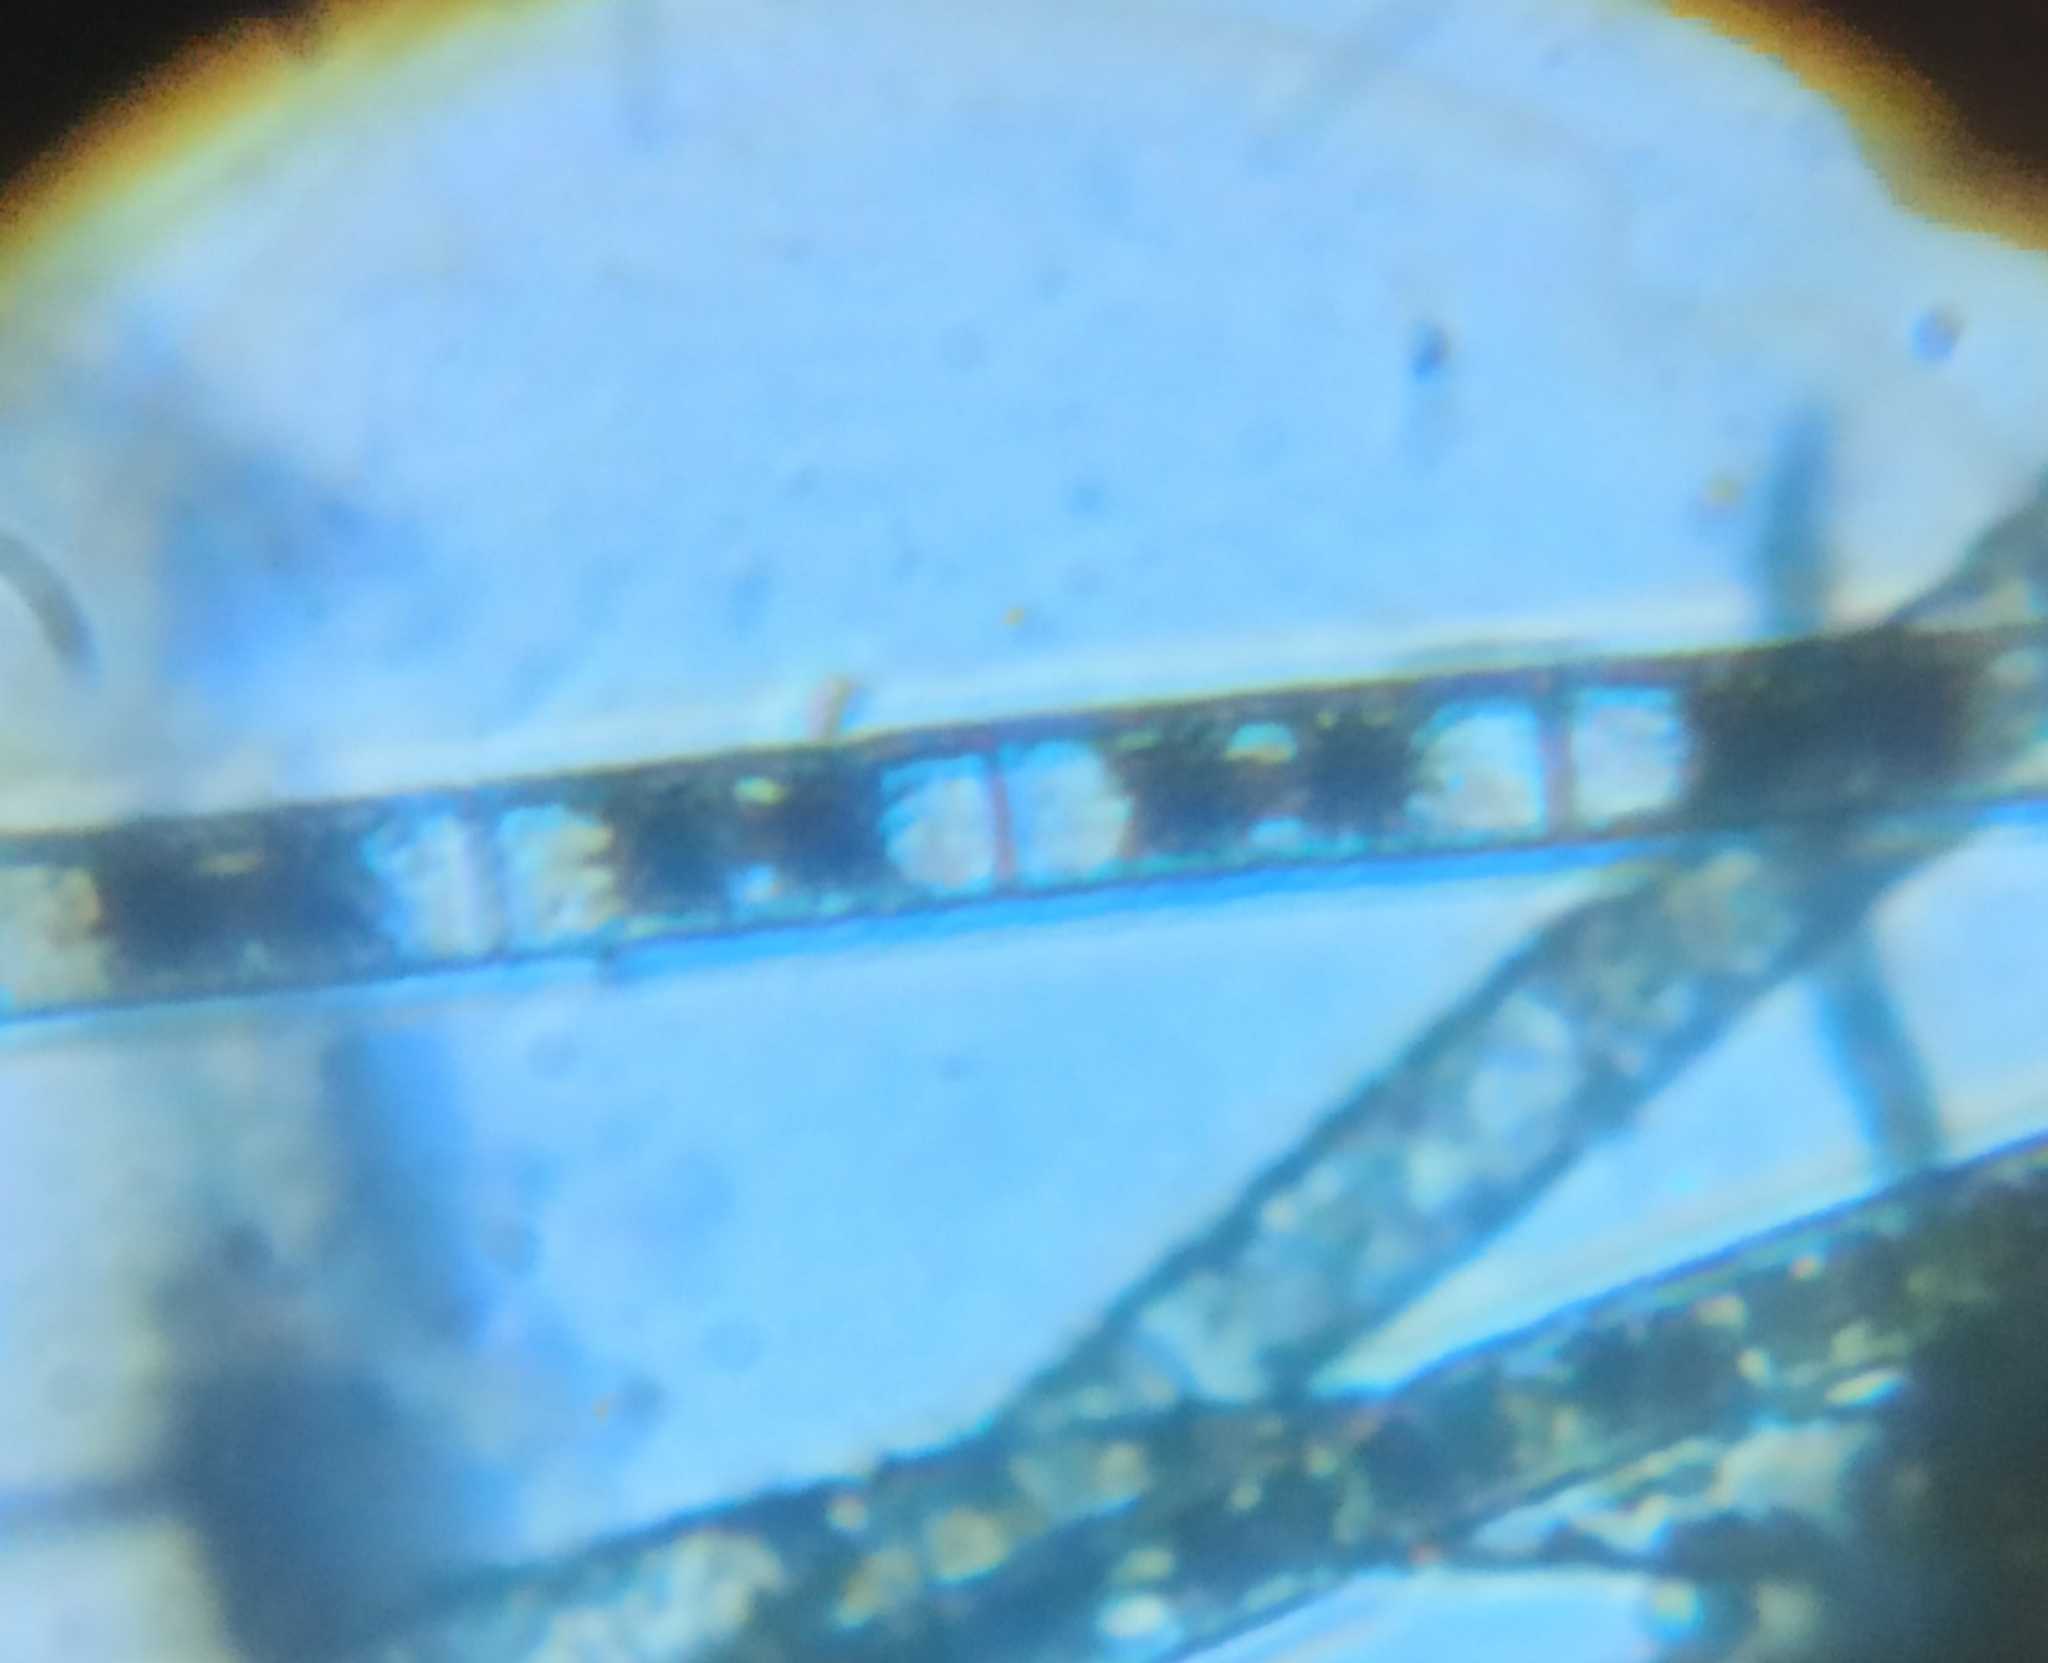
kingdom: Plantae
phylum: Charophyta
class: Zygnematophyceae
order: Zygnematales
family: Zygnemataceae
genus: Zygnema
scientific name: Zygnema
